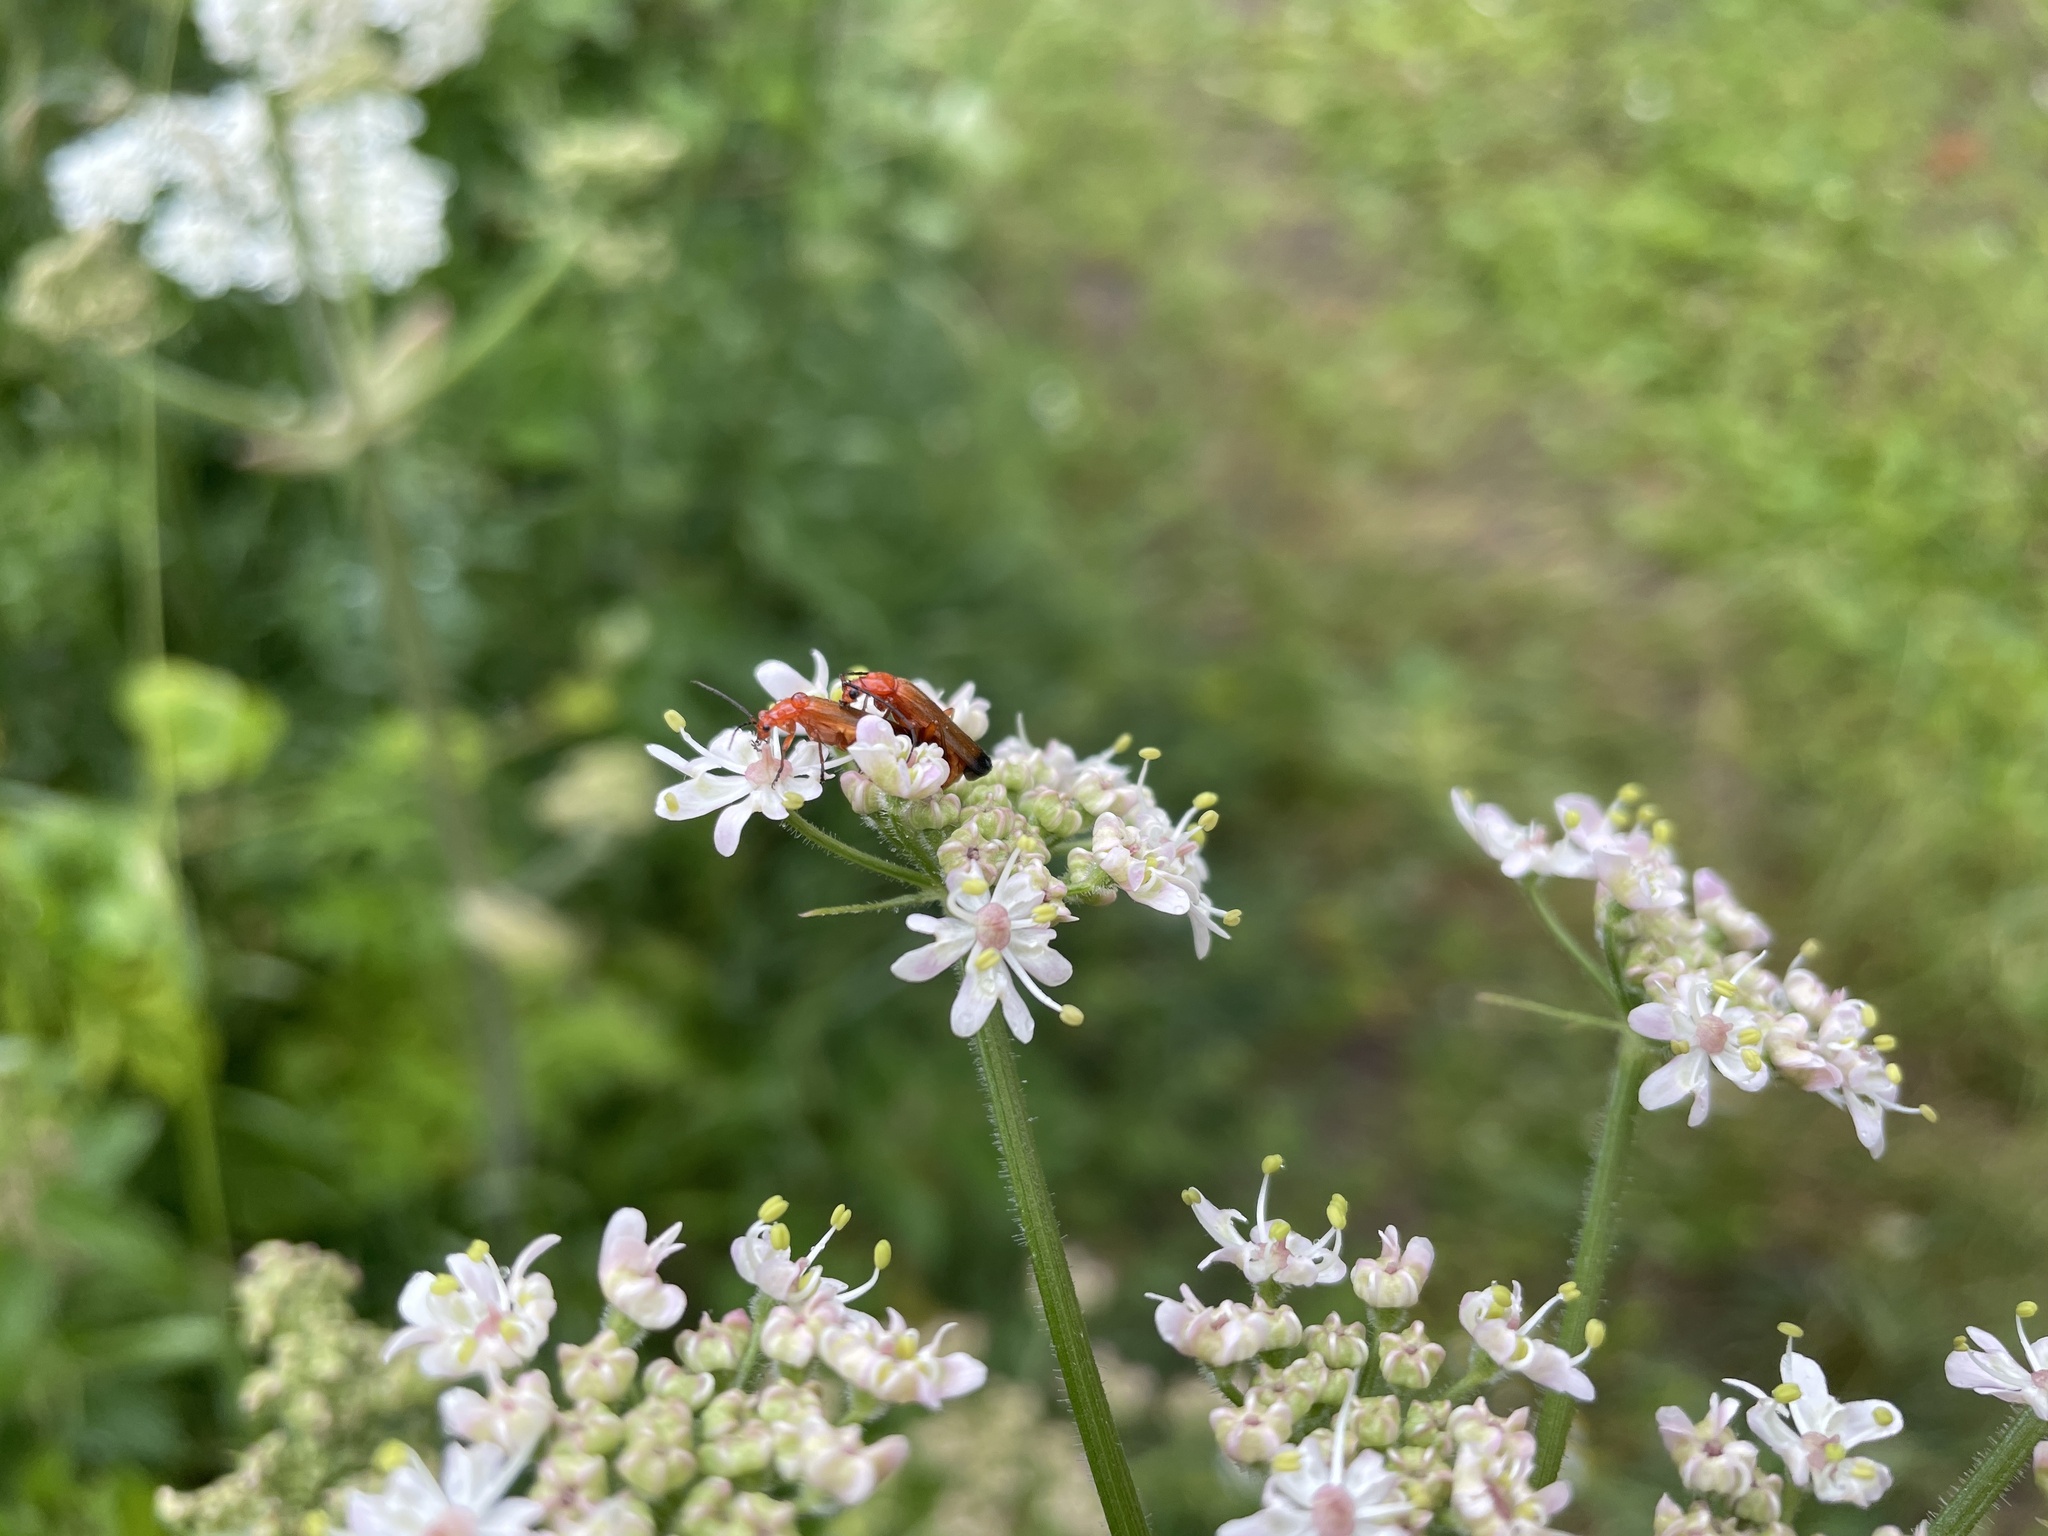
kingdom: Animalia
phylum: Arthropoda
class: Insecta
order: Coleoptera
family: Cantharidae
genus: Rhagonycha
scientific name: Rhagonycha fulva
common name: Common red soldier beetle
